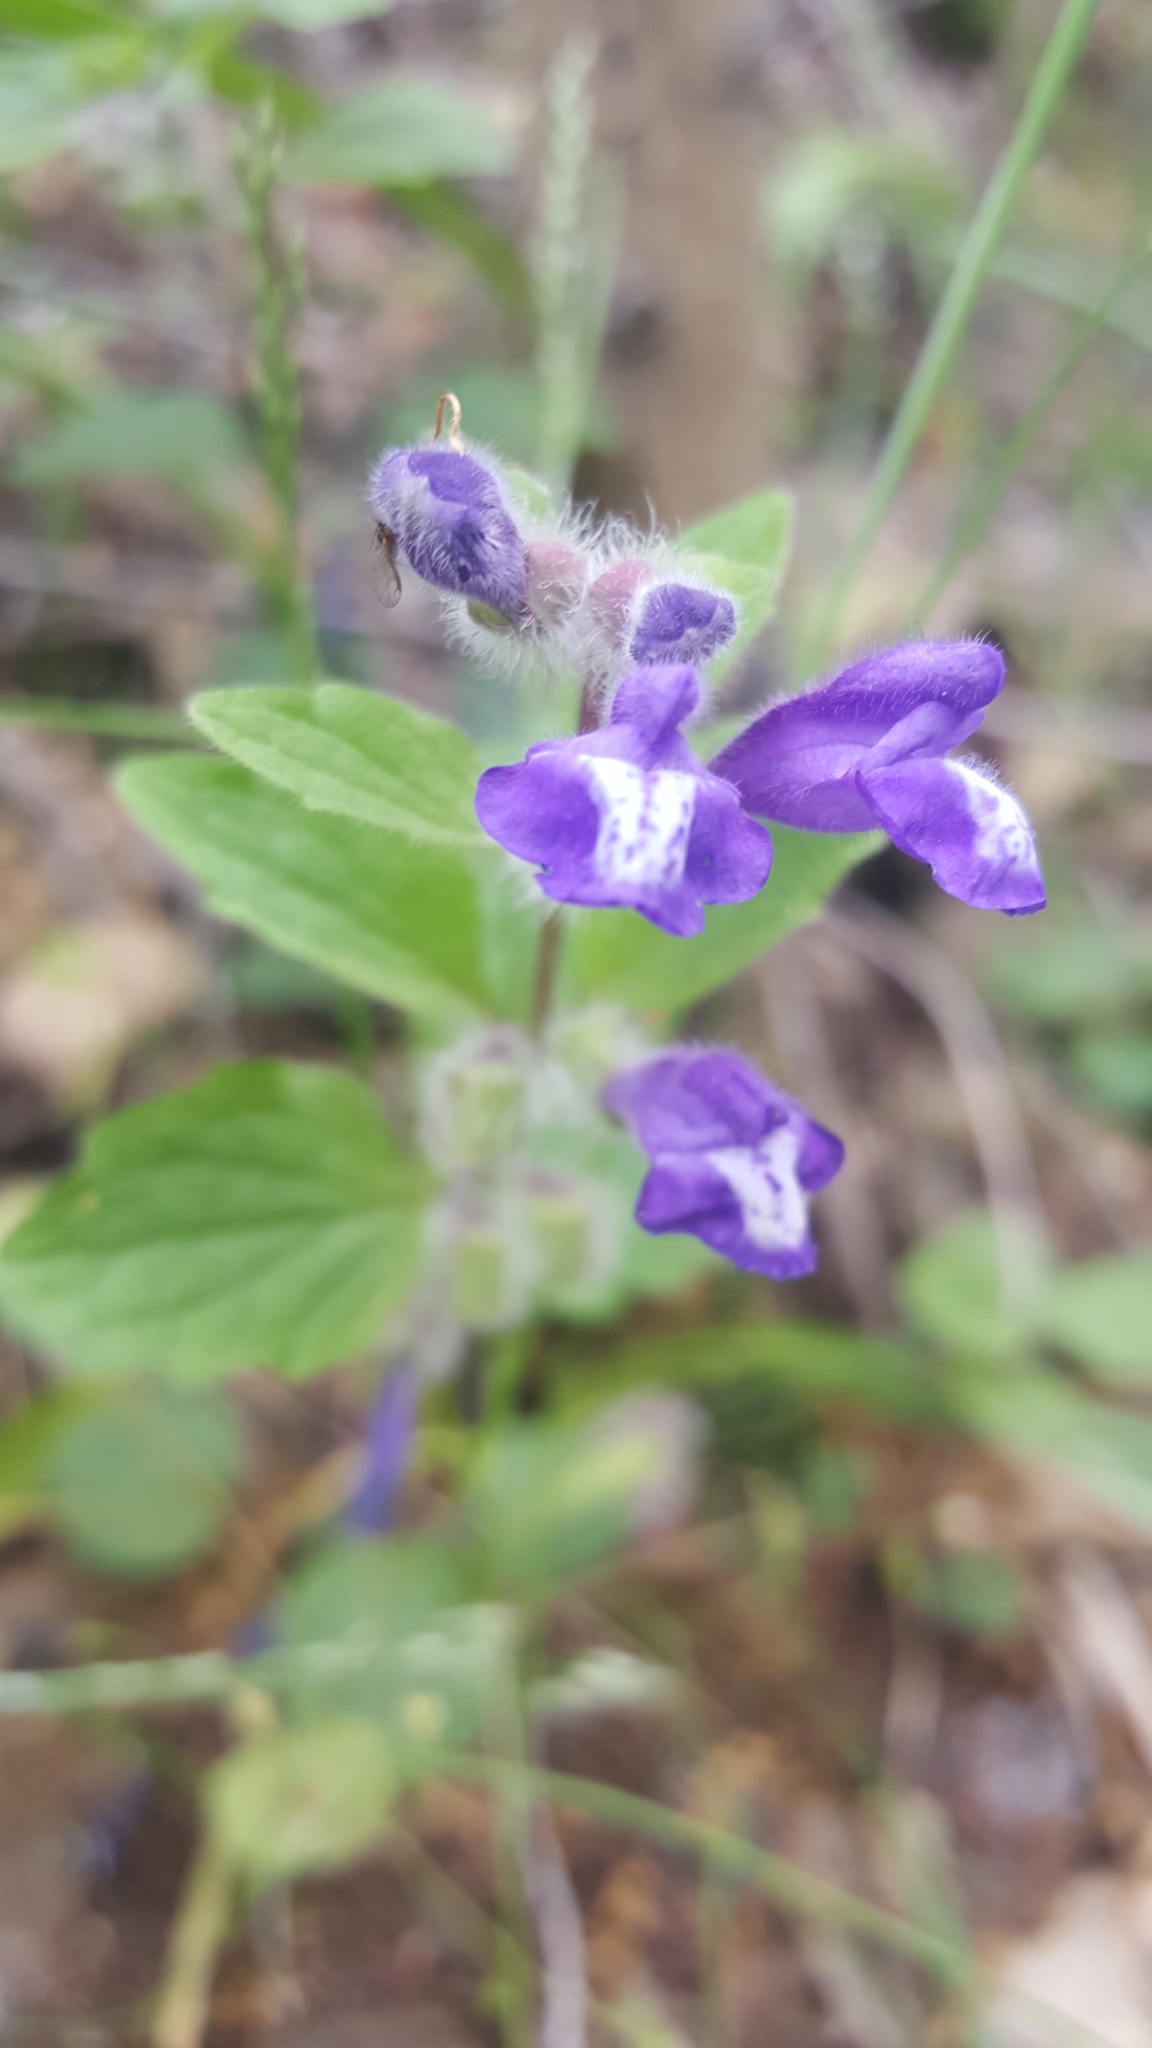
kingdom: Plantae
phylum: Tracheophyta
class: Magnoliopsida
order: Lamiales
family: Lamiaceae
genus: Scutellaria
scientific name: Scutellaria tuberosa
